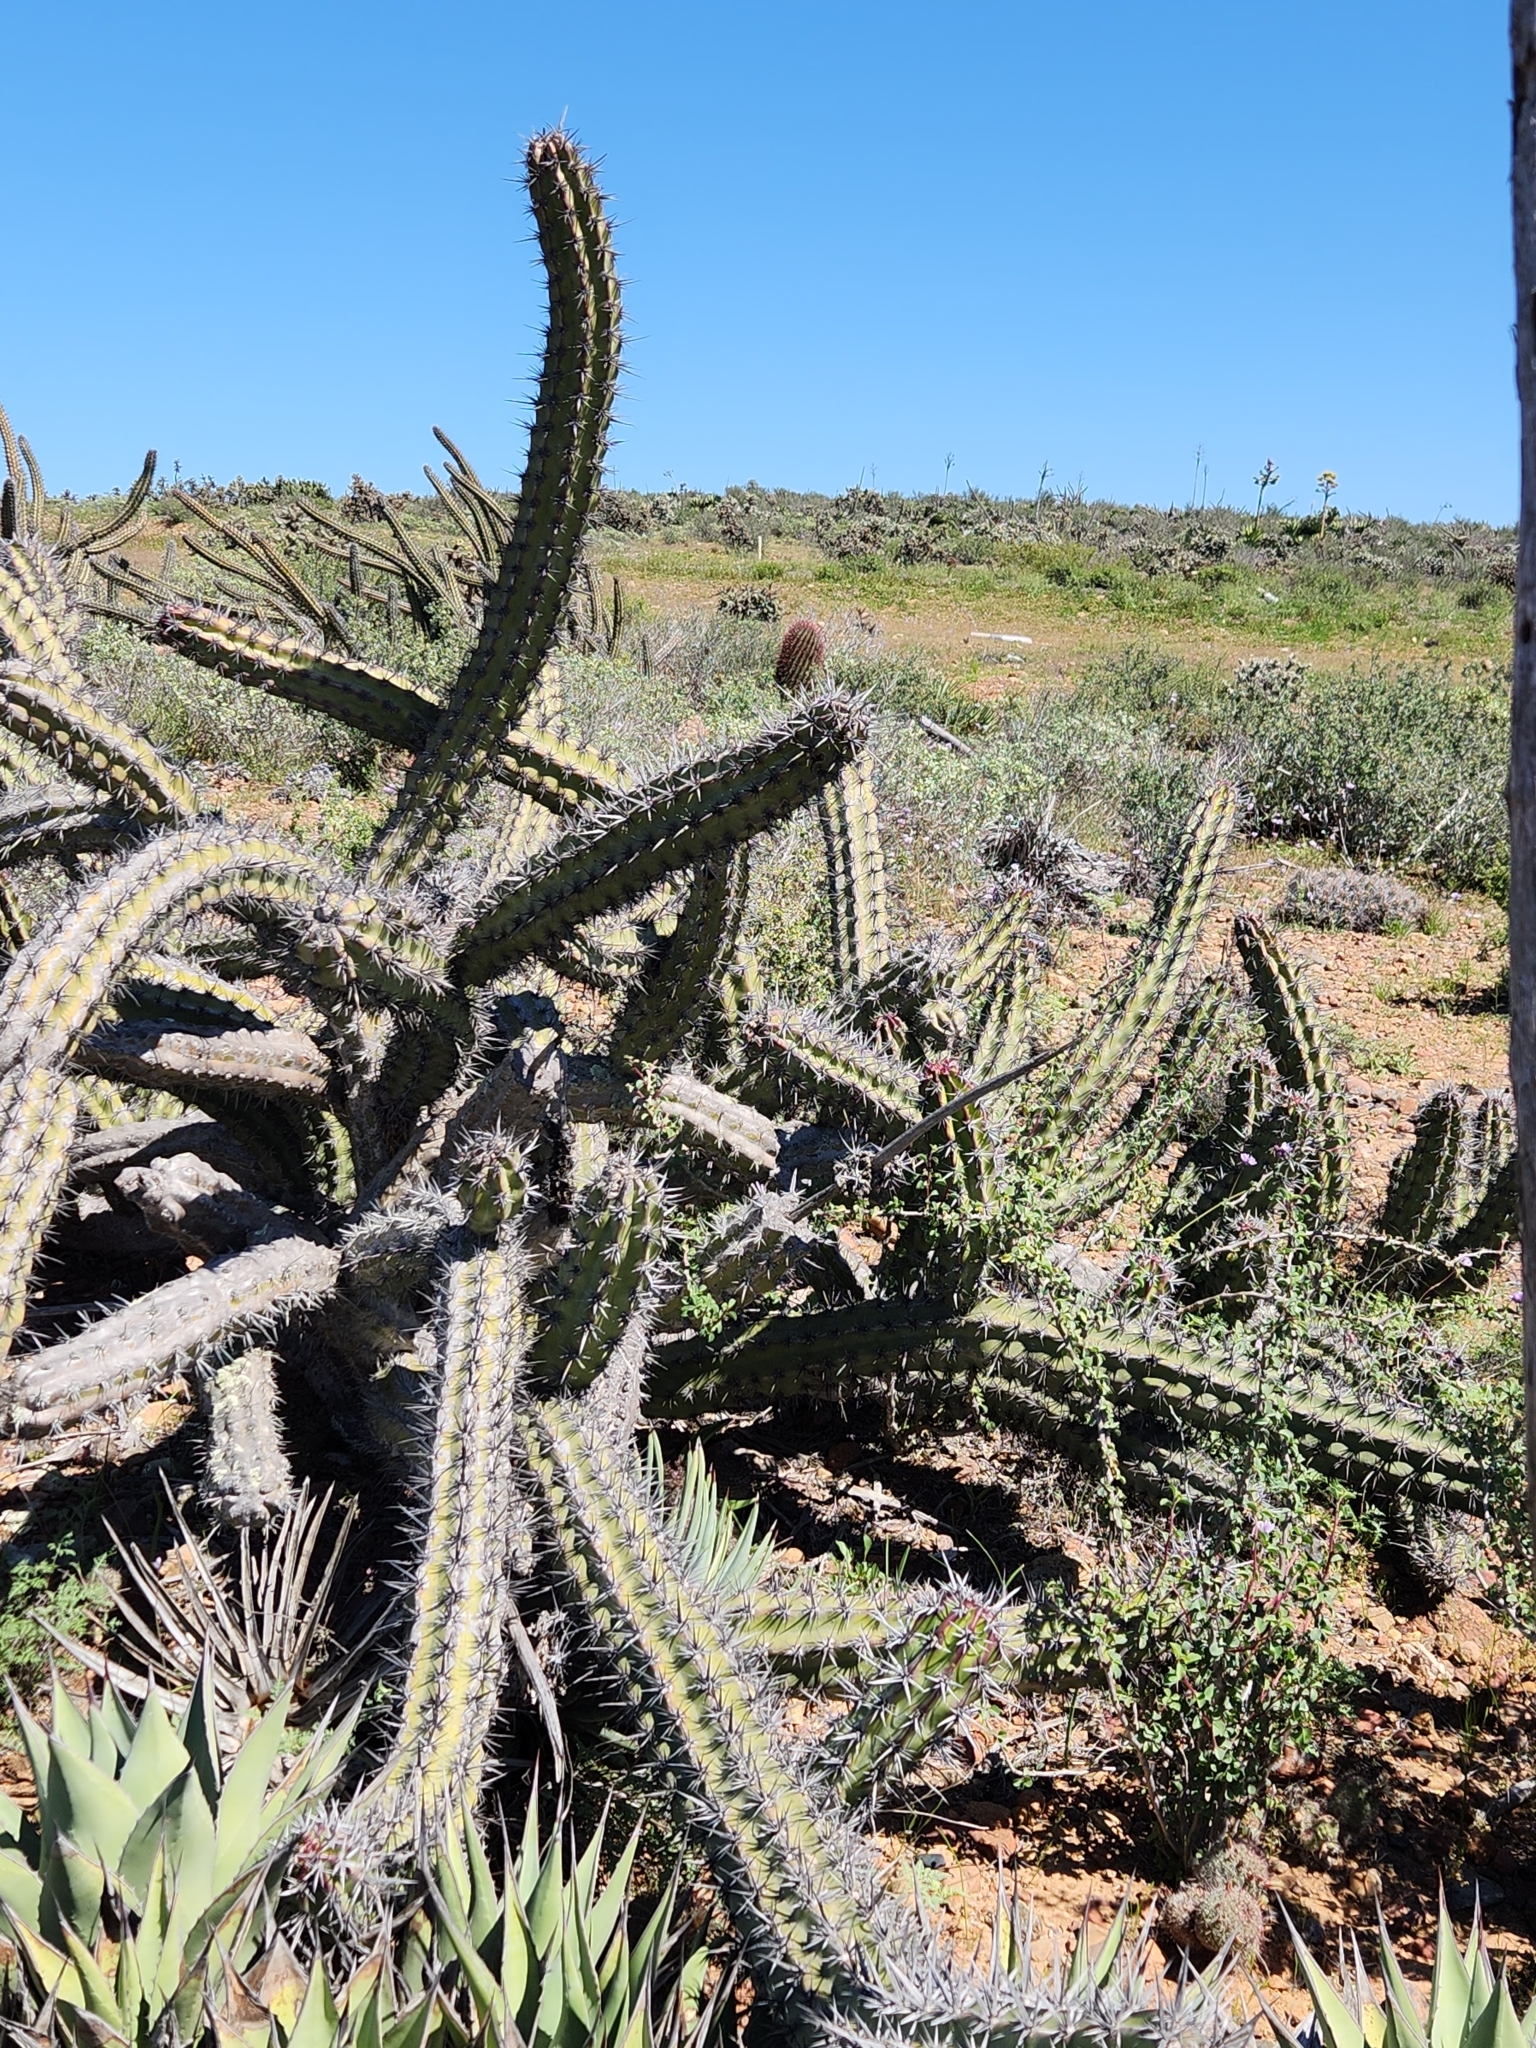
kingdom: Plantae
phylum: Tracheophyta
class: Magnoliopsida
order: Caryophyllales
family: Cactaceae
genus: Stenocereus
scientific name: Stenocereus gummosus
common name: Dagger cactus
